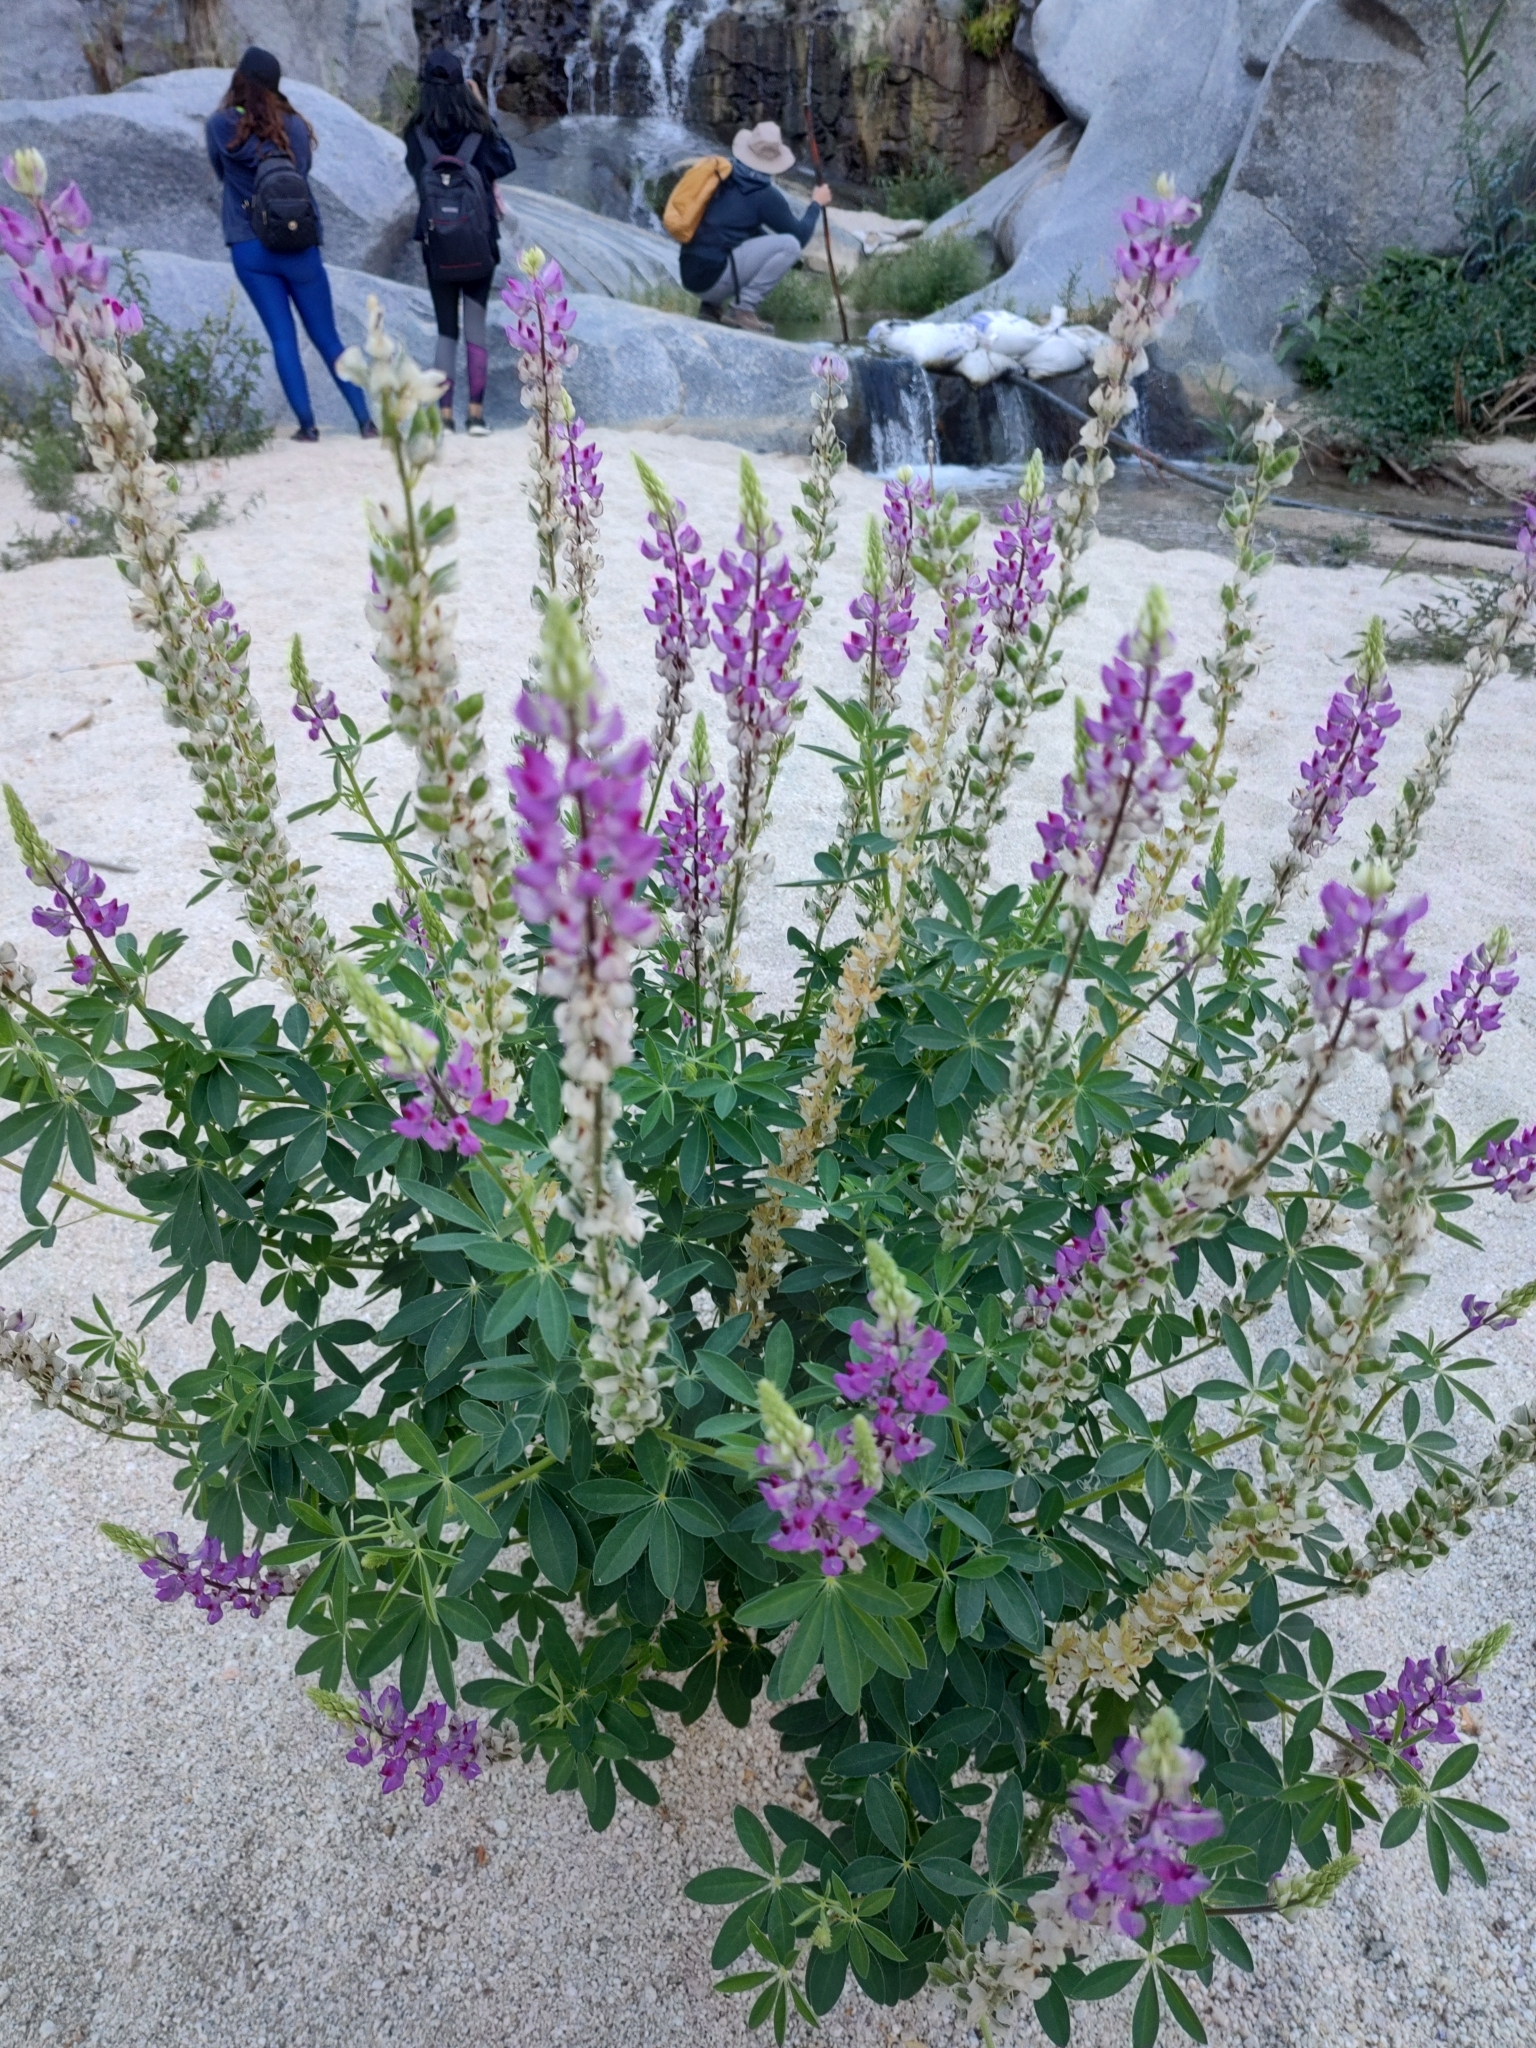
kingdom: Plantae
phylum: Tracheophyta
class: Magnoliopsida
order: Fabales
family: Fabaceae
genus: Lupinus
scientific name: Lupinus arizonicus
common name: Arizona lupine
